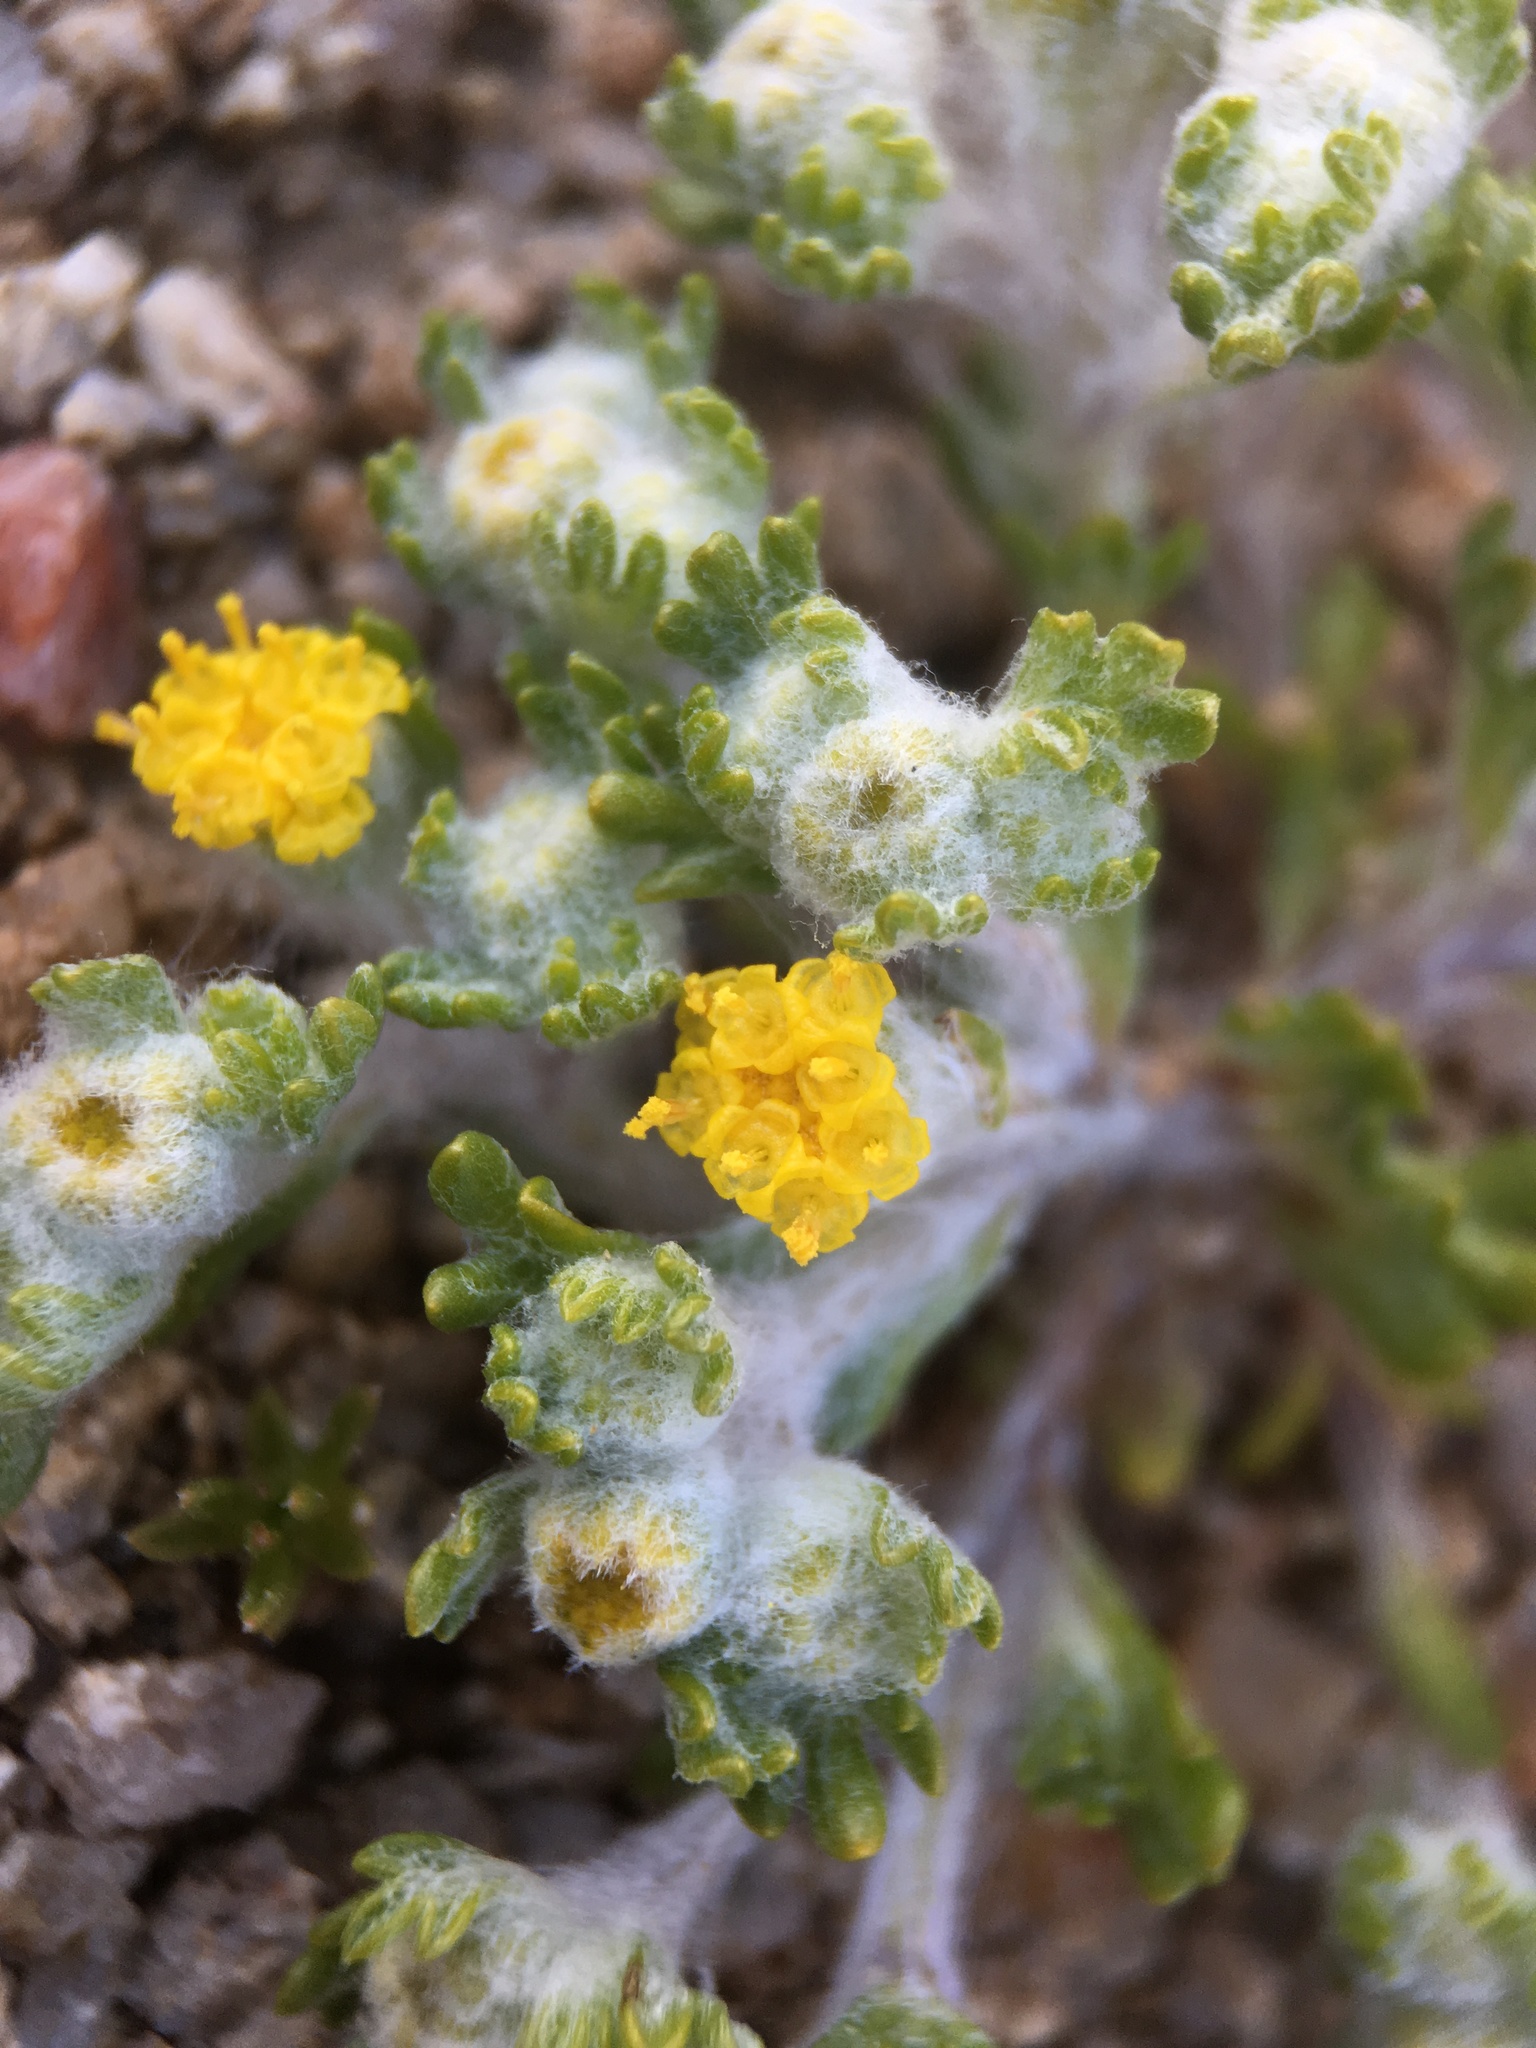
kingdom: Plantae
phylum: Tracheophyta
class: Magnoliopsida
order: Asterales
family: Asteraceae
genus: Eriophyllum
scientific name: Eriophyllum pringlei
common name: Pringle's woolly-sunflower
